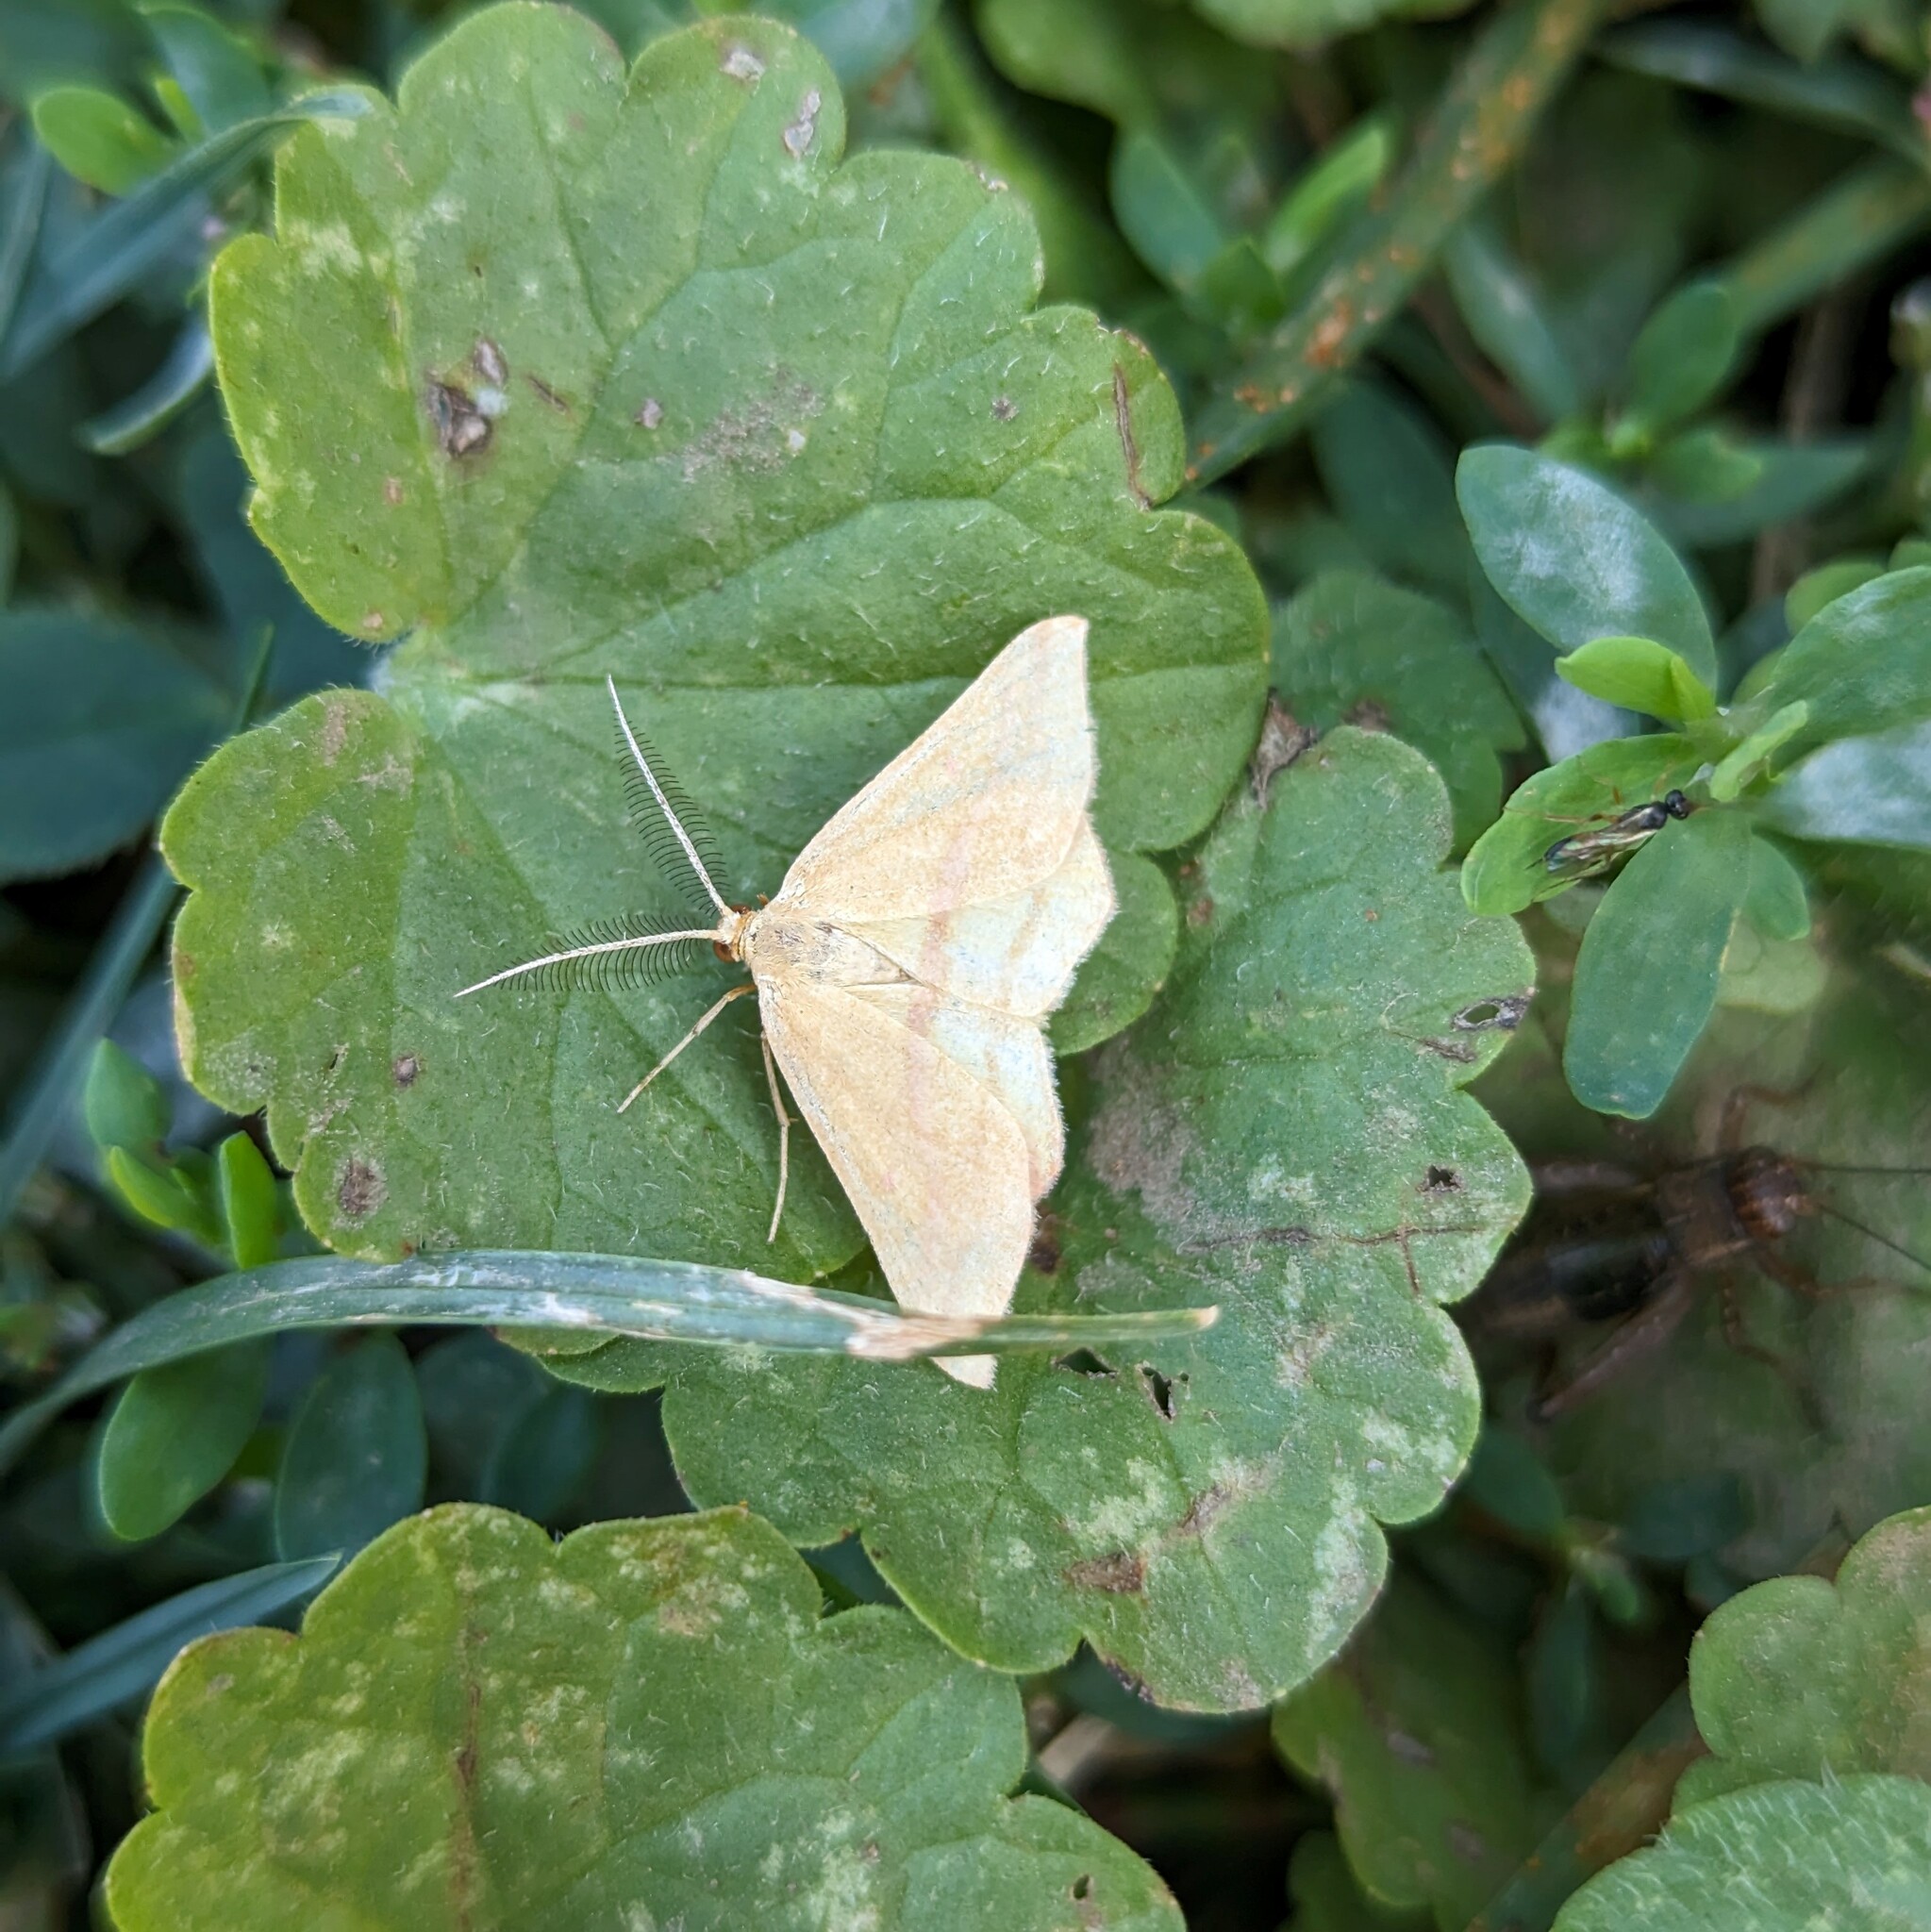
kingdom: Animalia
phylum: Arthropoda
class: Insecta
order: Lepidoptera
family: Geometridae
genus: Haematopis
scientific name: Haematopis grataria
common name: Chickweed geometer
